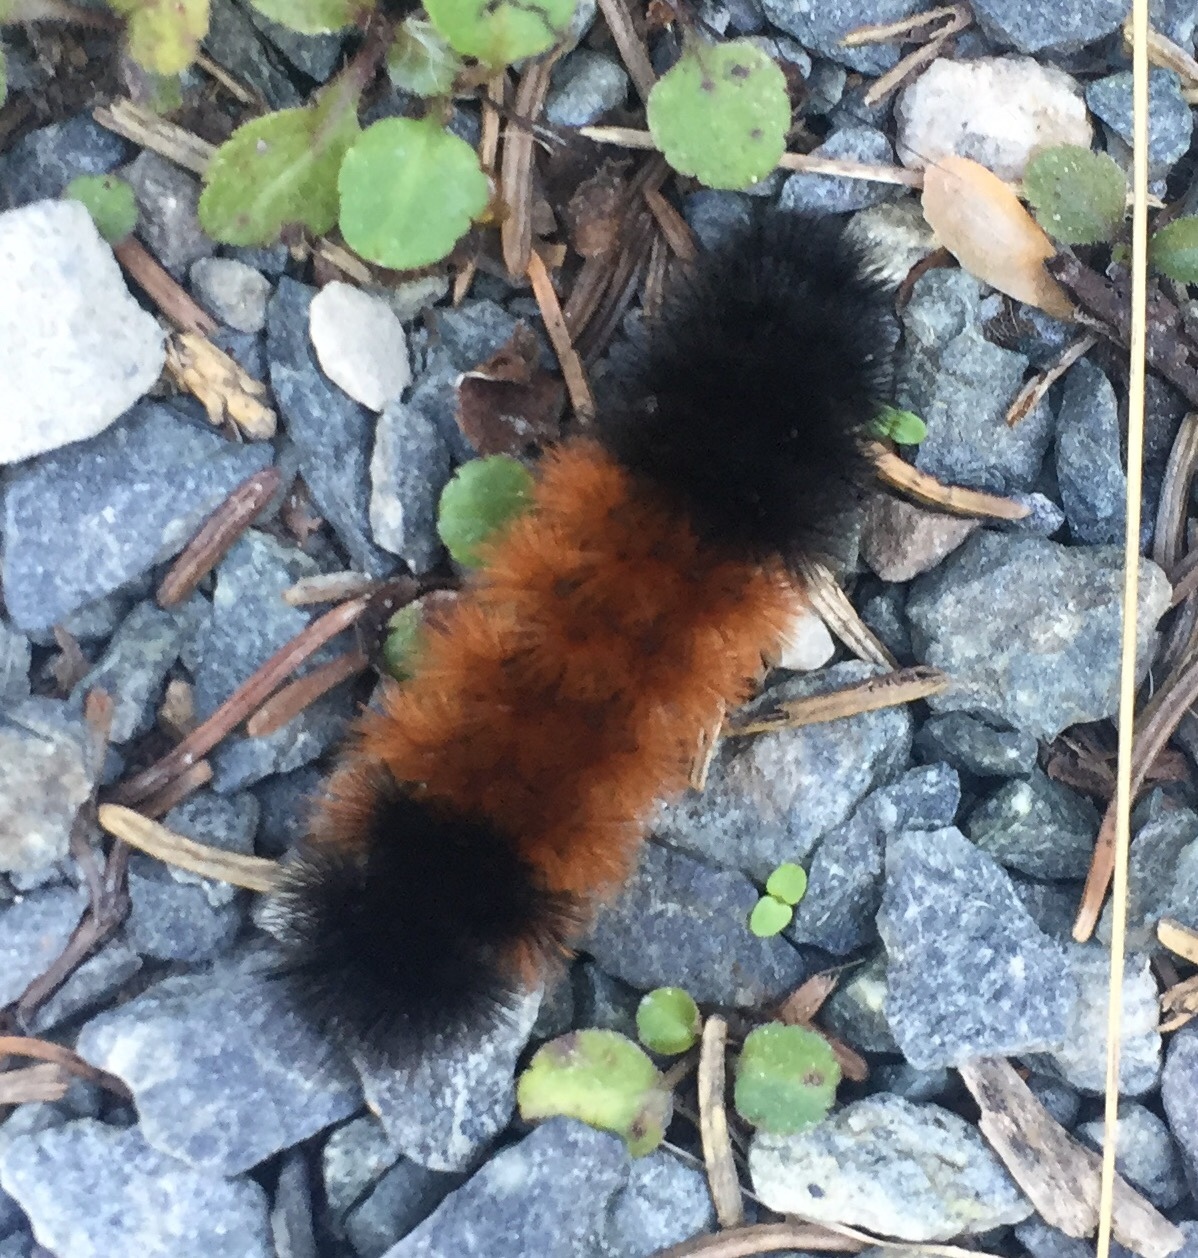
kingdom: Animalia
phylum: Arthropoda
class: Insecta
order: Lepidoptera
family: Erebidae
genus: Pyrrharctia
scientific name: Pyrrharctia isabella
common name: Isabella tiger moth
